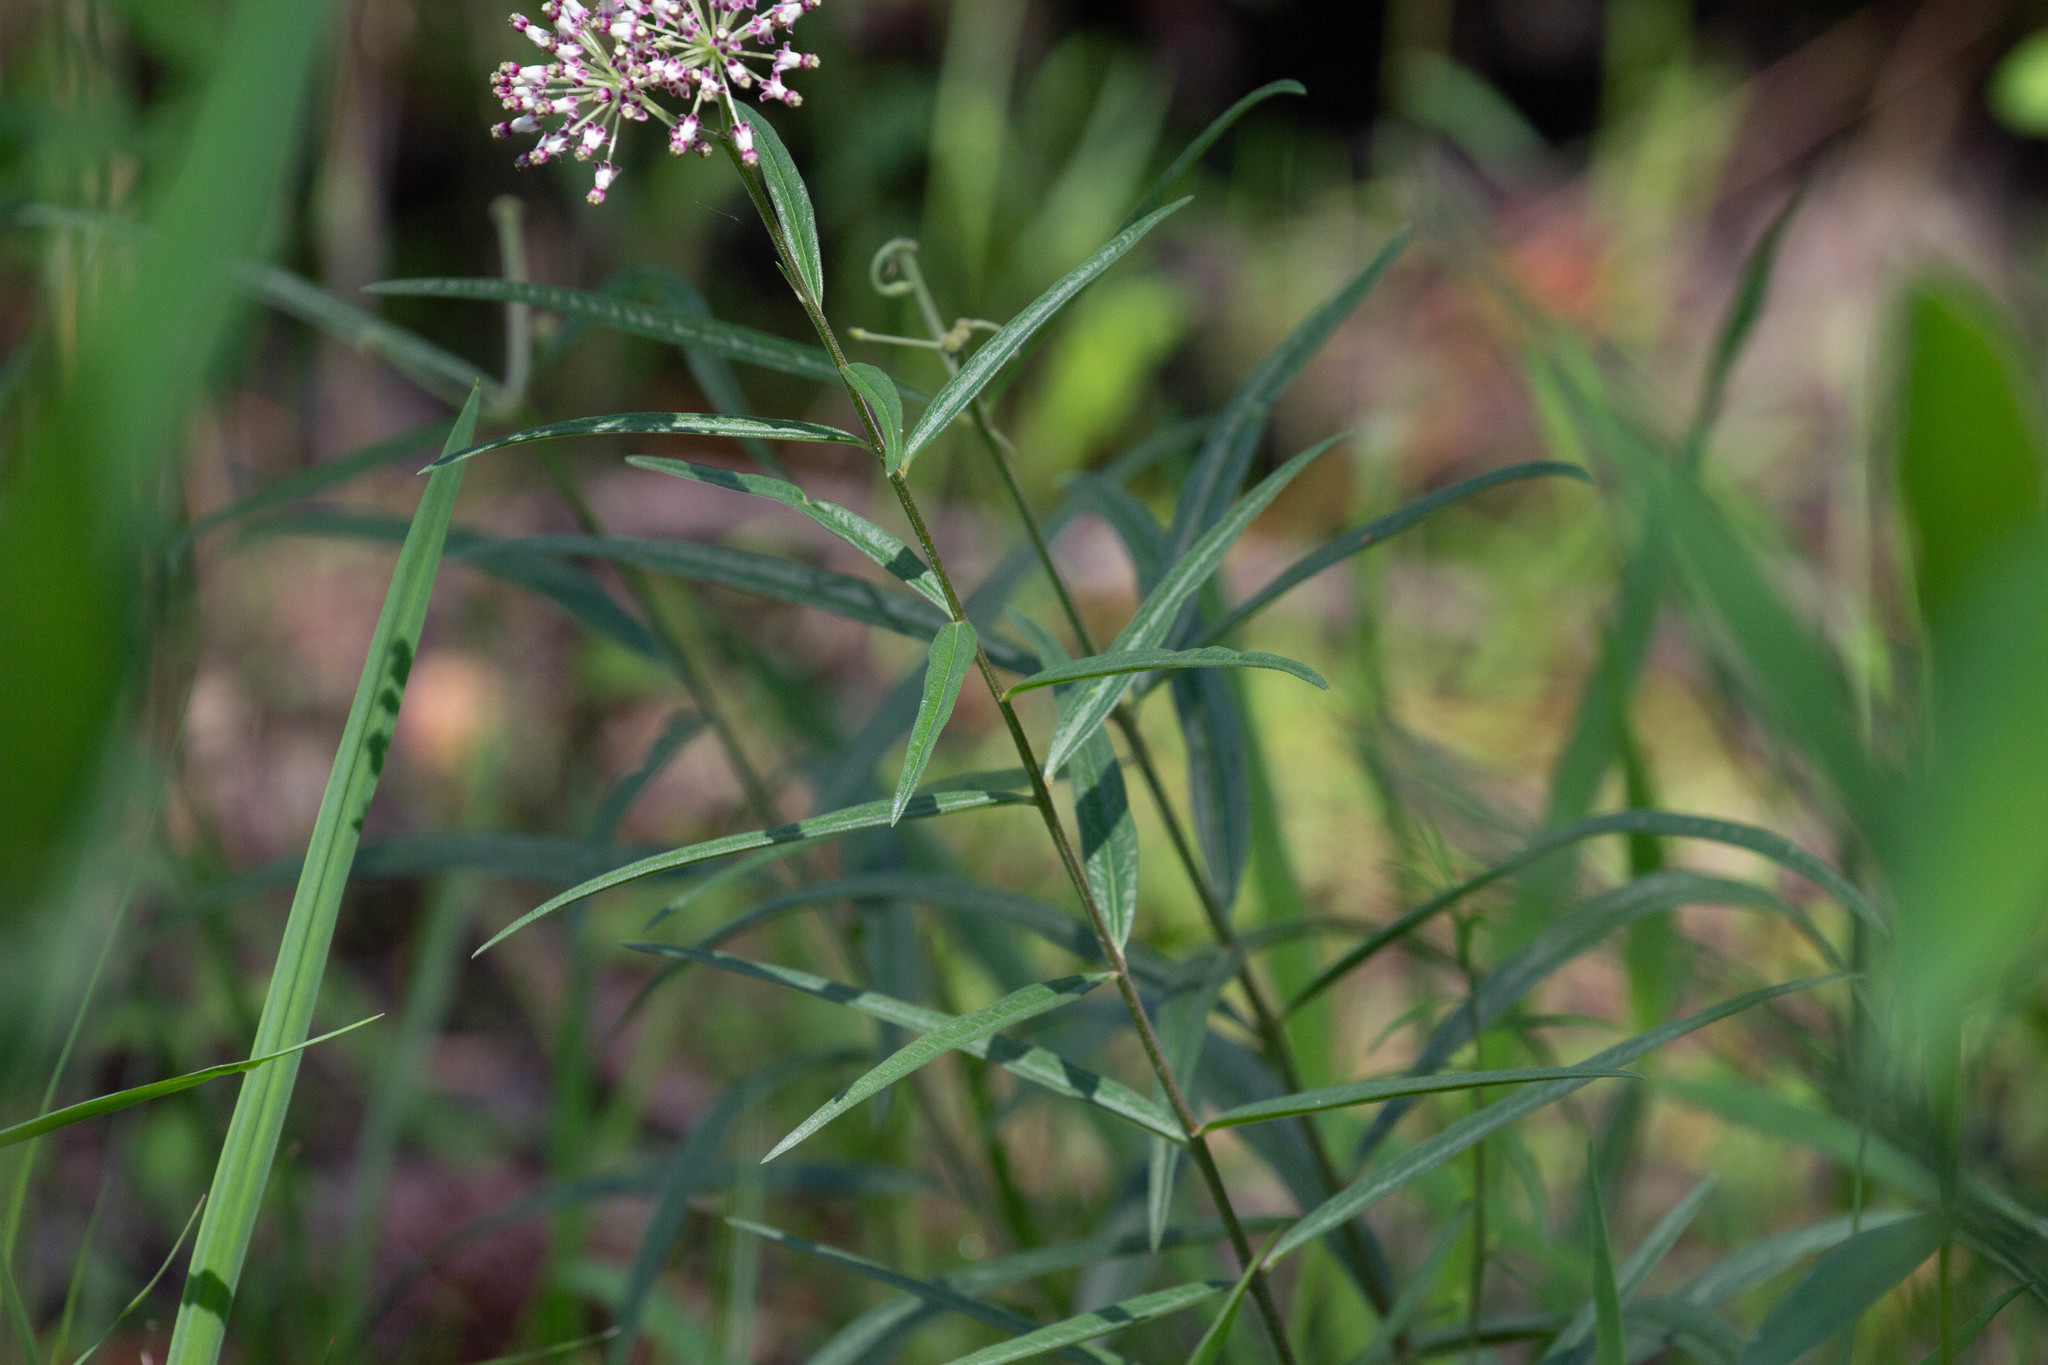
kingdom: Plantae
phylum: Tracheophyta
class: Magnoliopsida
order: Gentianales
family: Apocynaceae
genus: Asclepias
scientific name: Asclepias longifolia
